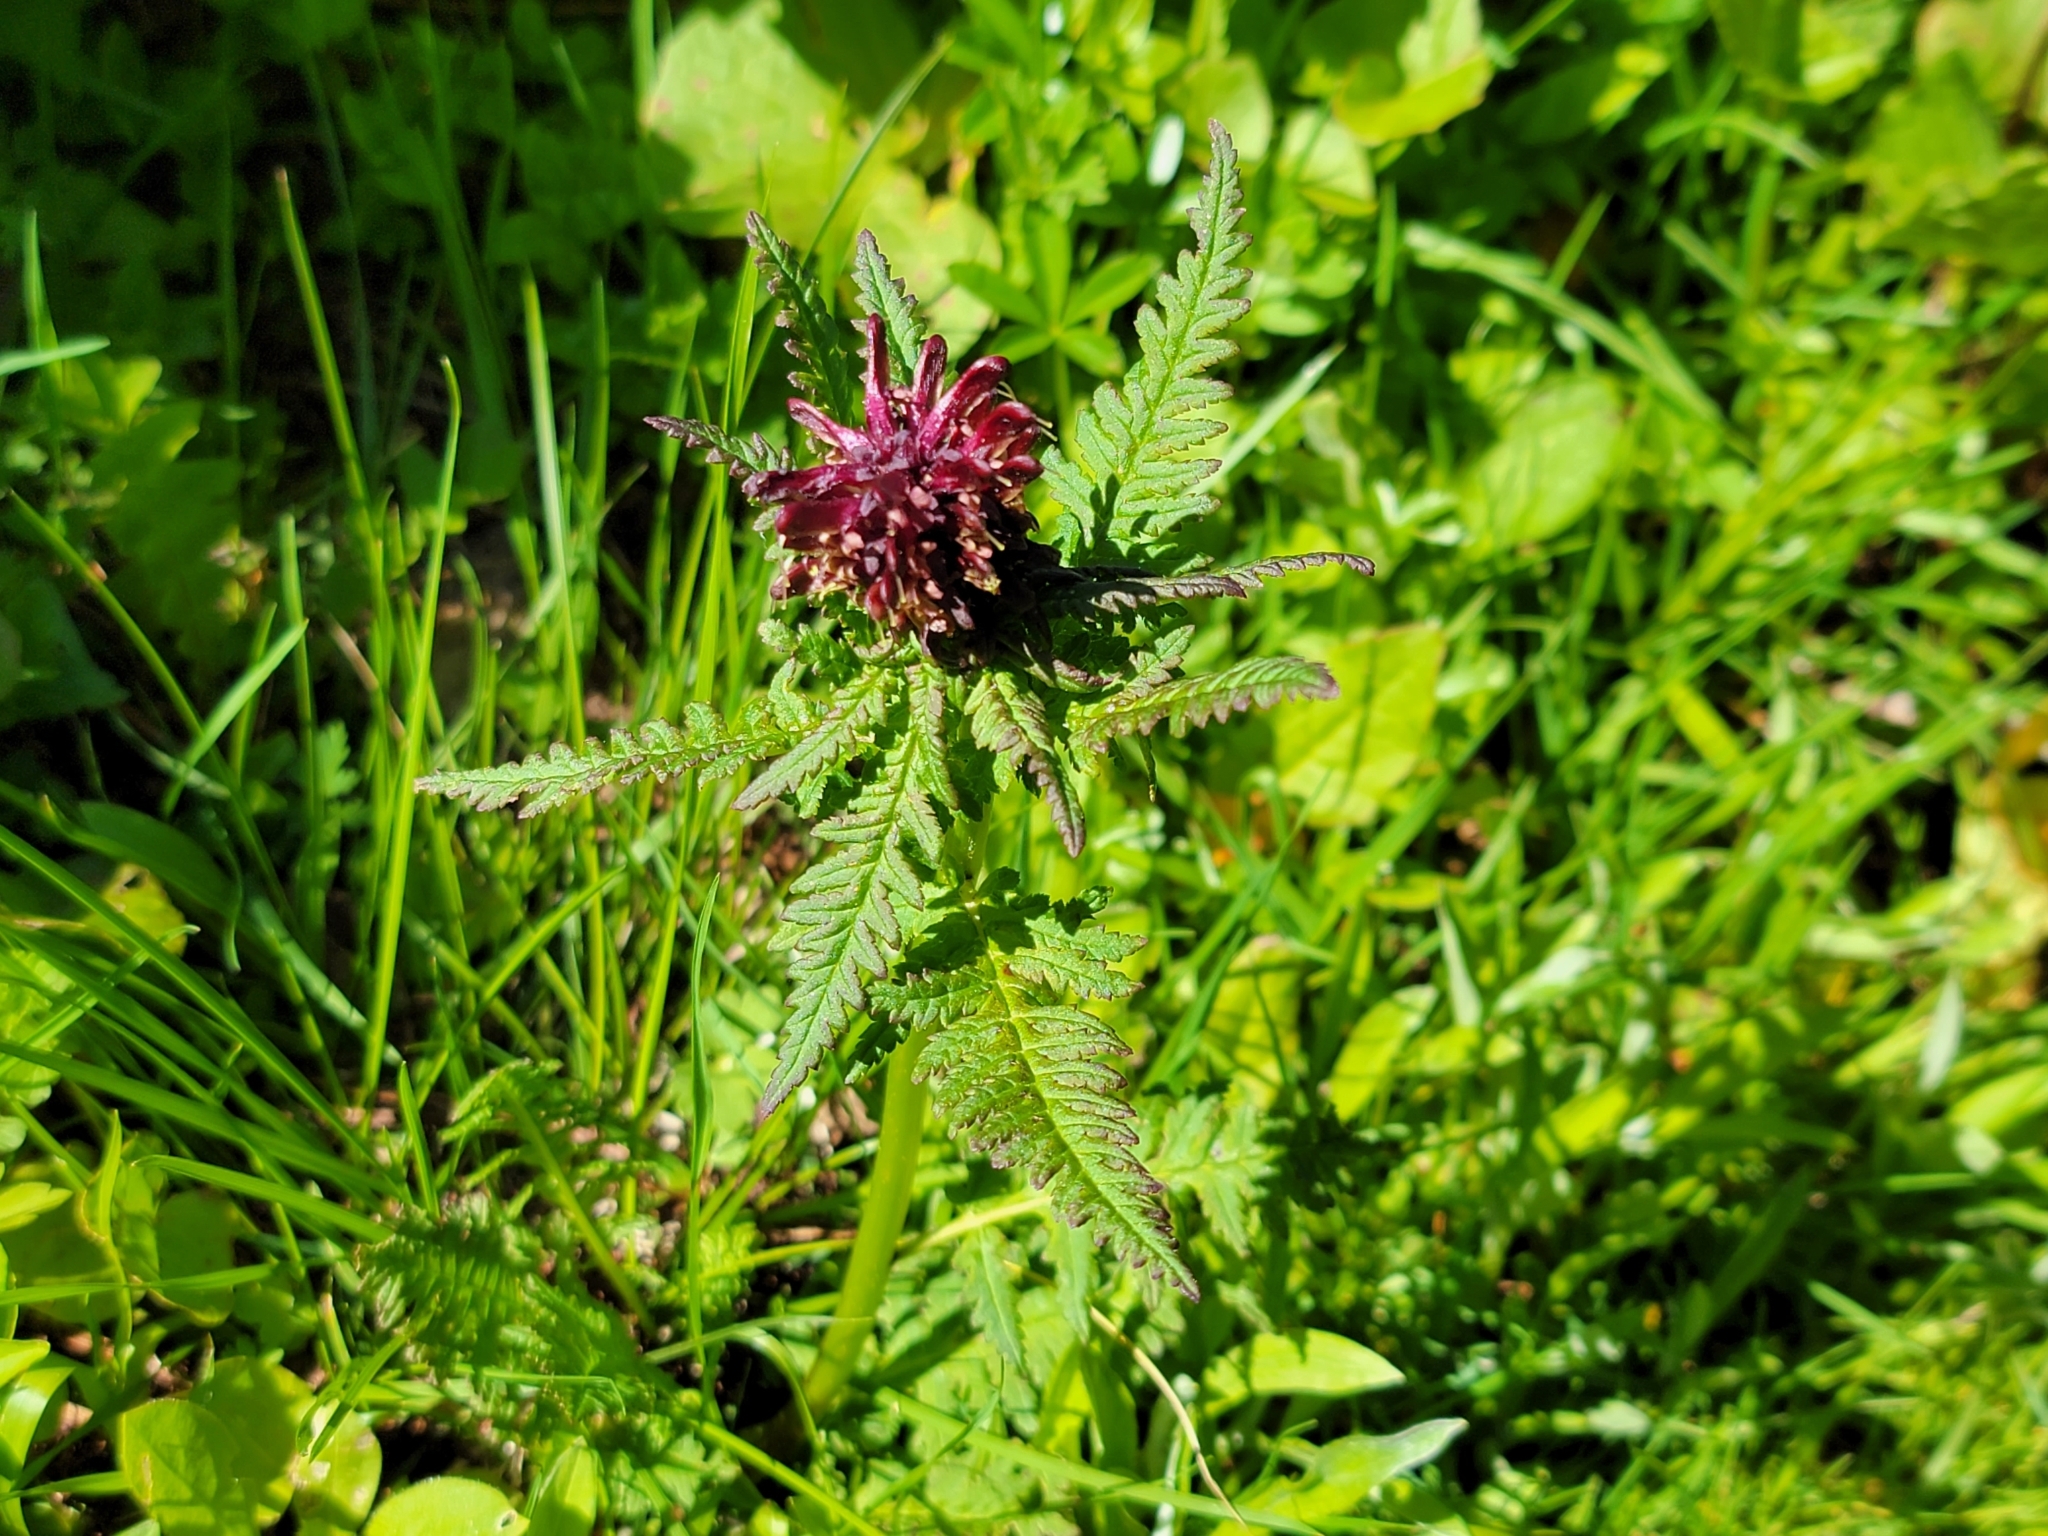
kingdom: Plantae
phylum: Tracheophyta
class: Magnoliopsida
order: Lamiales
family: Orobanchaceae
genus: Pedicularis
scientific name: Pedicularis recutita
